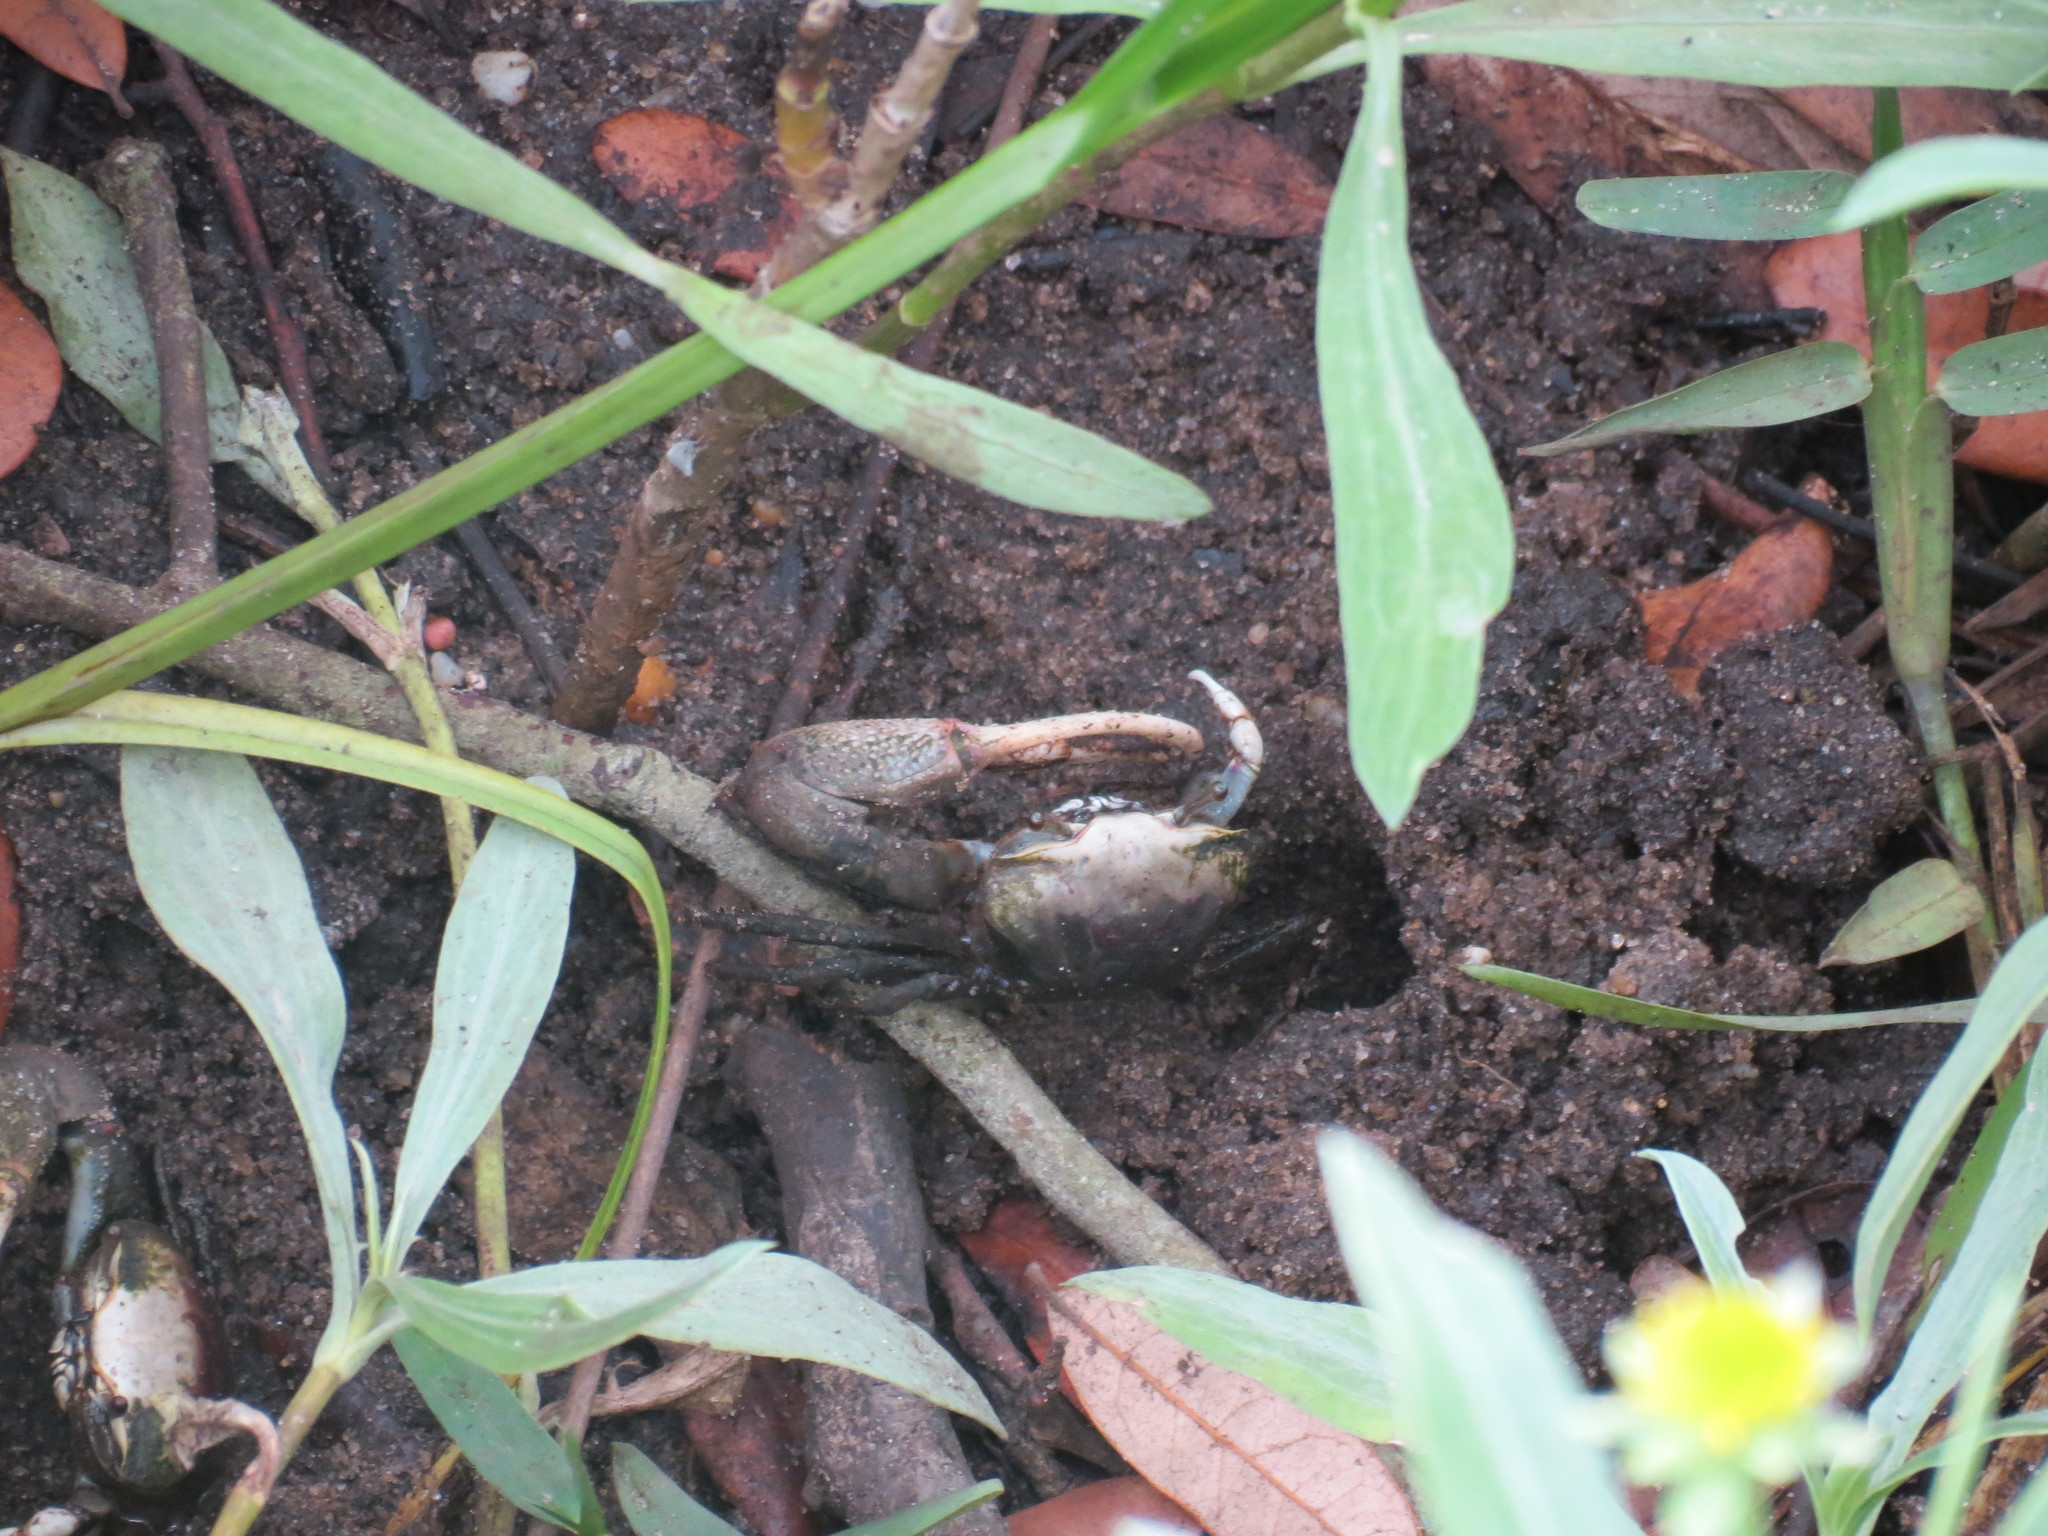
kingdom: Animalia
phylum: Arthropoda
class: Malacostraca
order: Decapoda
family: Ocypodidae
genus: Minuca
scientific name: Minuca minax
